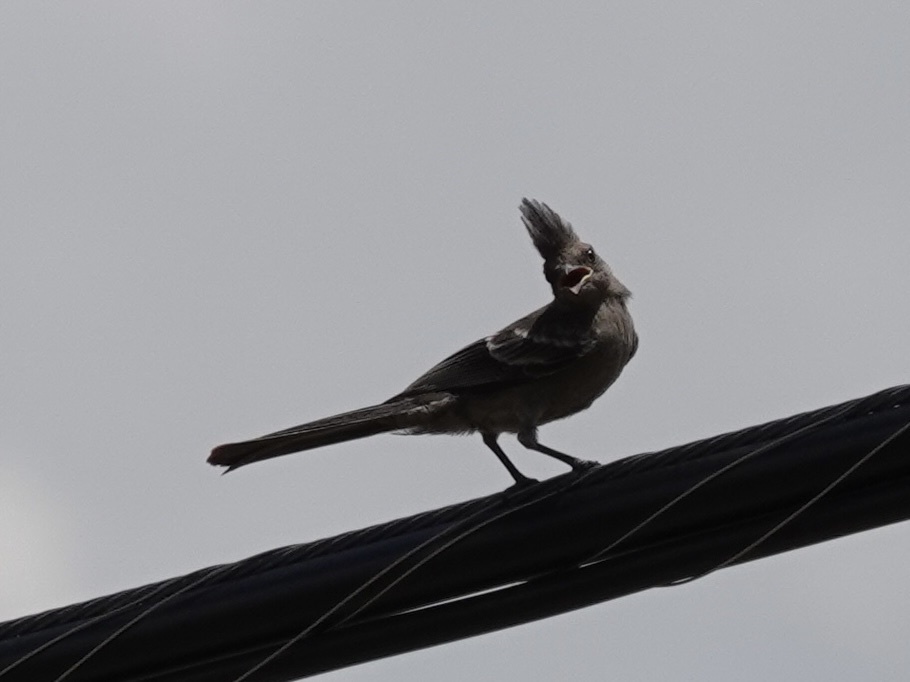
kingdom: Animalia
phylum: Chordata
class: Aves
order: Passeriformes
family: Ptilogonatidae
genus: Phainopepla
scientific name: Phainopepla nitens
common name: Phainopepla
